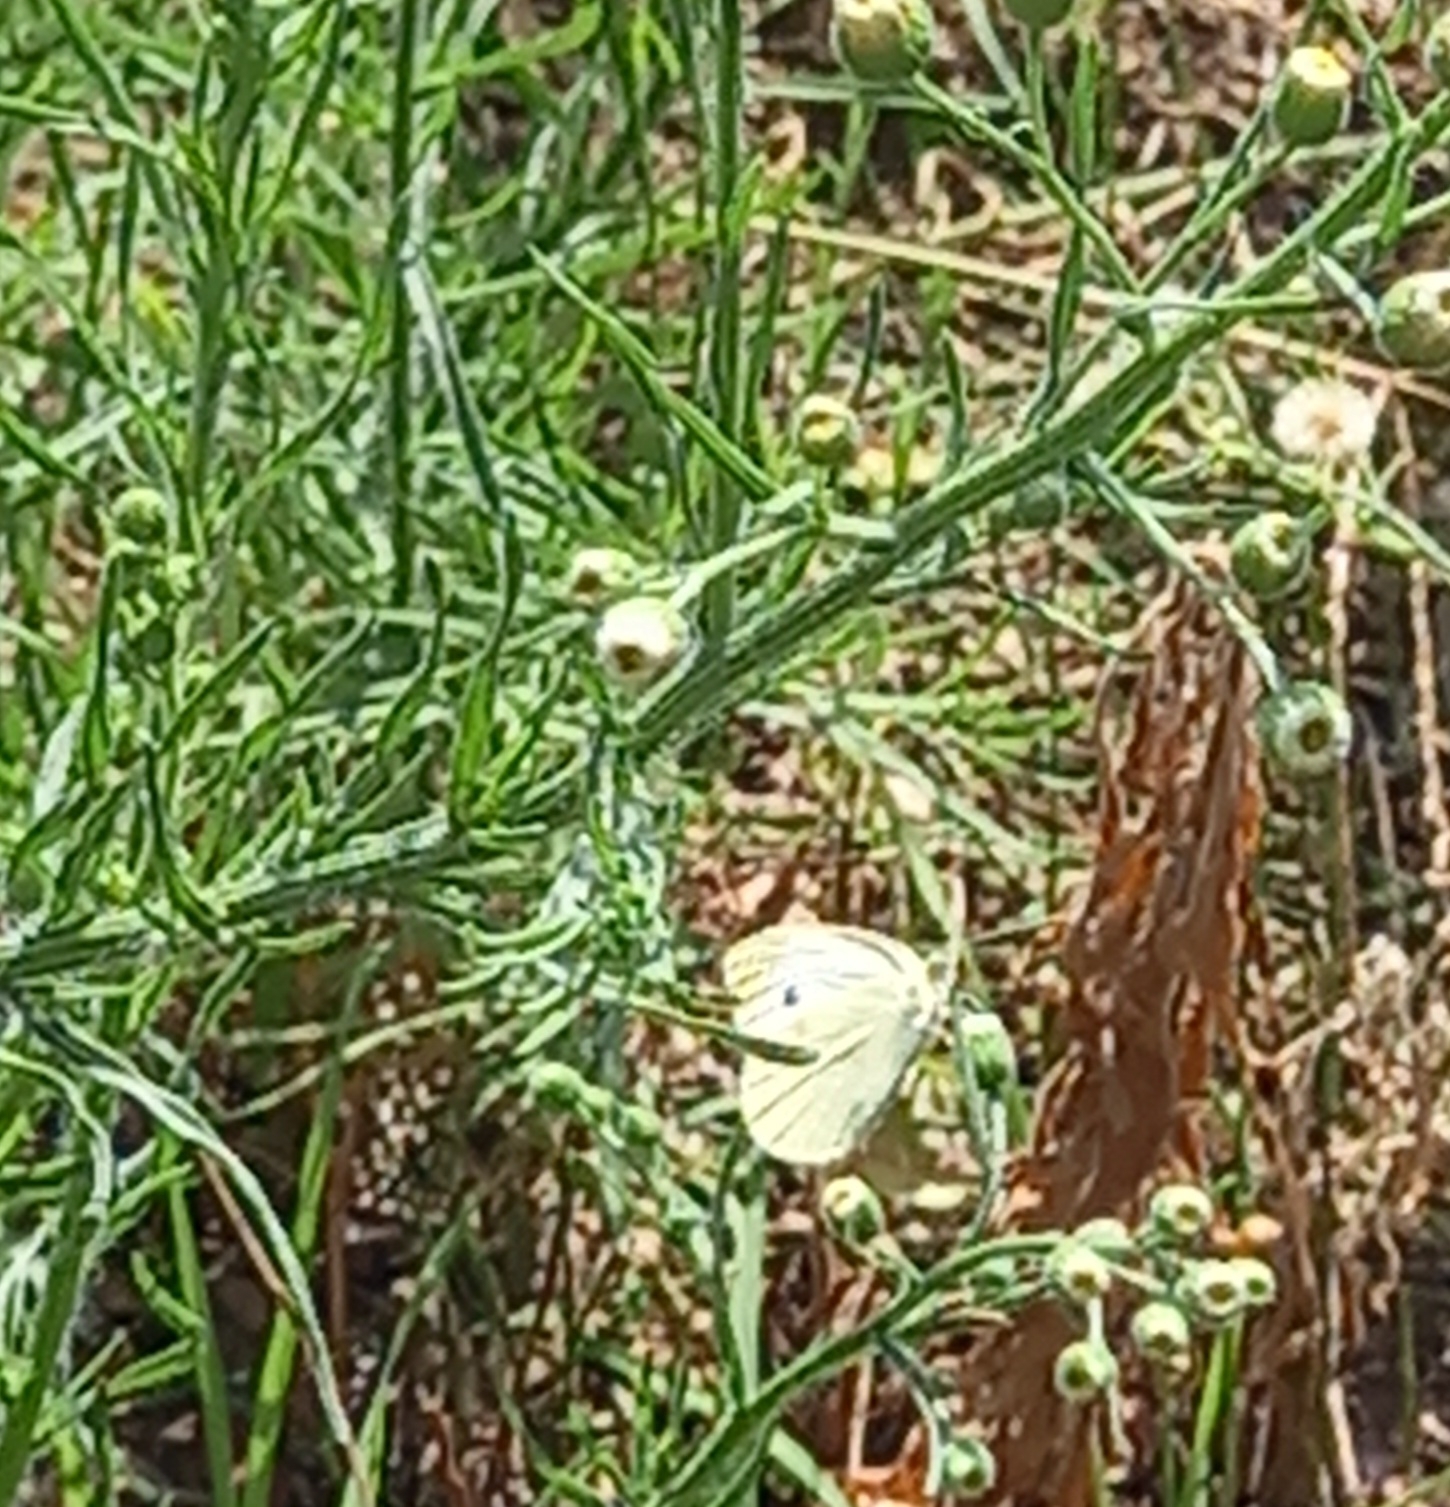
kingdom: Animalia
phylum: Arthropoda
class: Insecta
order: Lepidoptera
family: Pieridae
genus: Pieris
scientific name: Pieris rapae
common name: Small white
